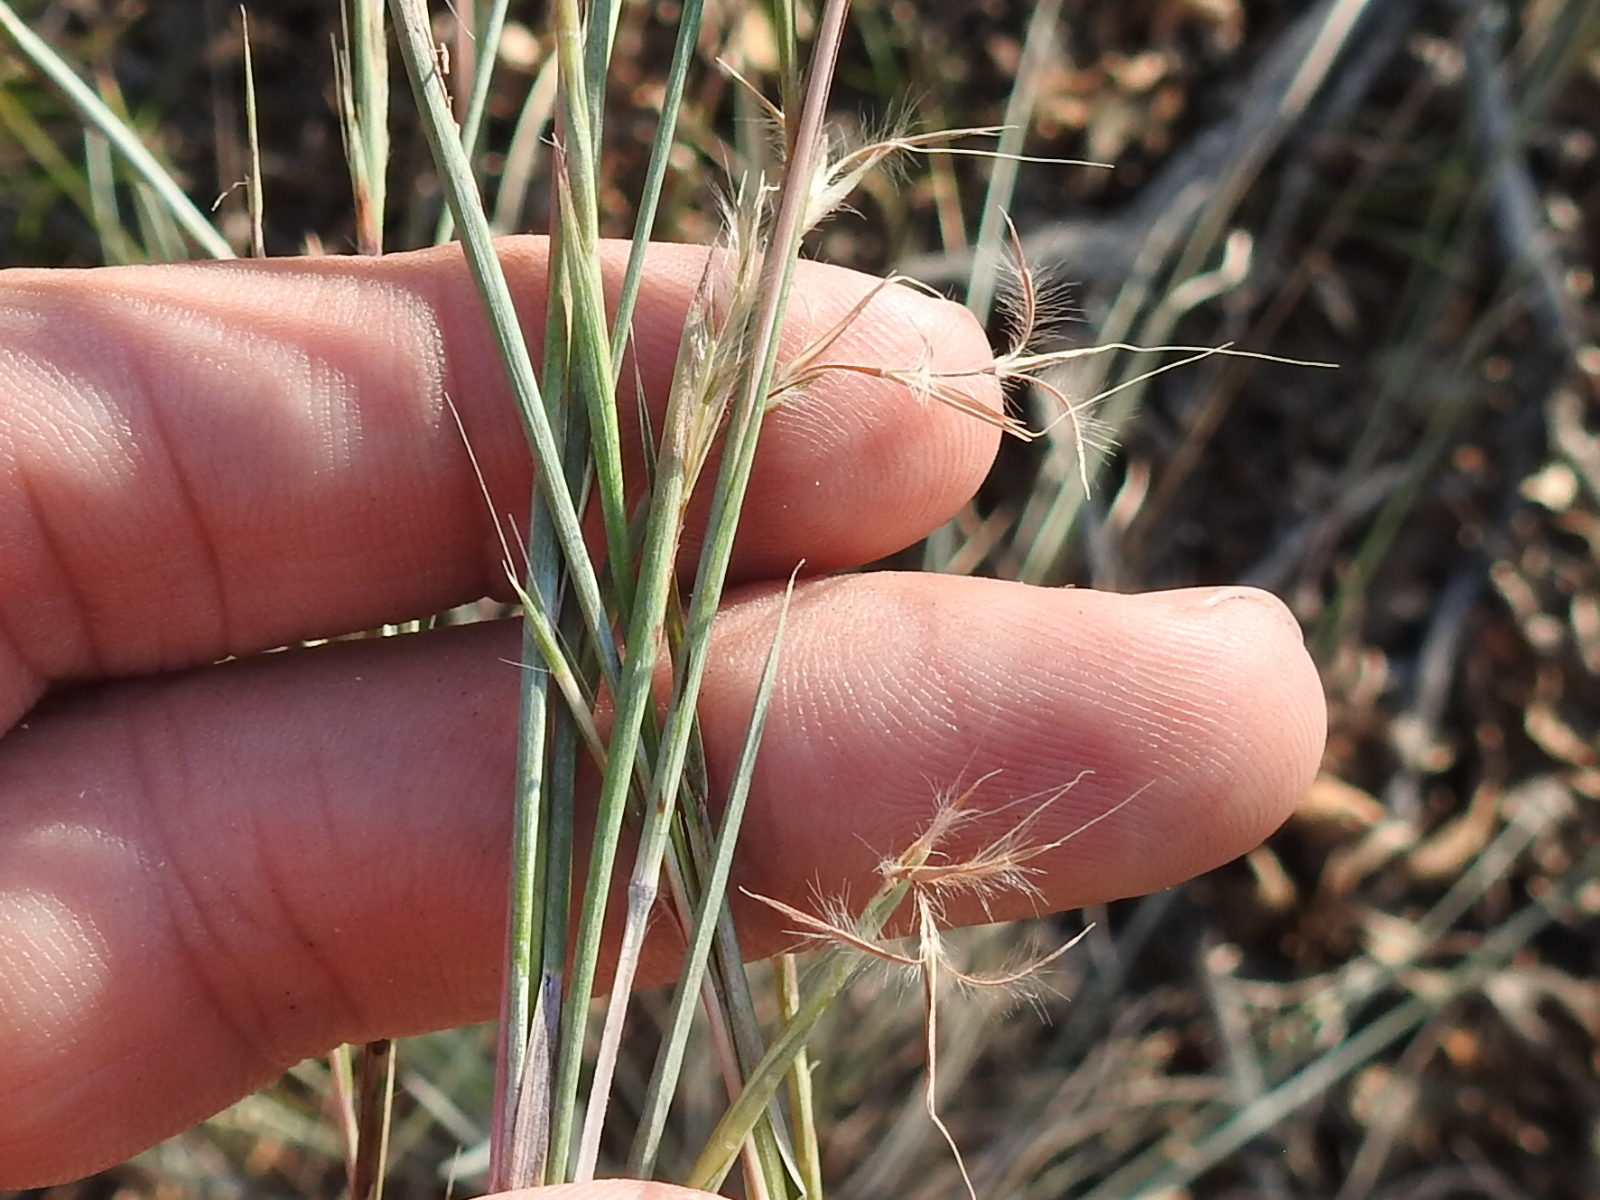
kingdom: Plantae
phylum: Tracheophyta
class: Liliopsida
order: Poales
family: Poaceae
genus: Schizachyrium
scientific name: Schizachyrium scoparium
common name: Little bluestem
